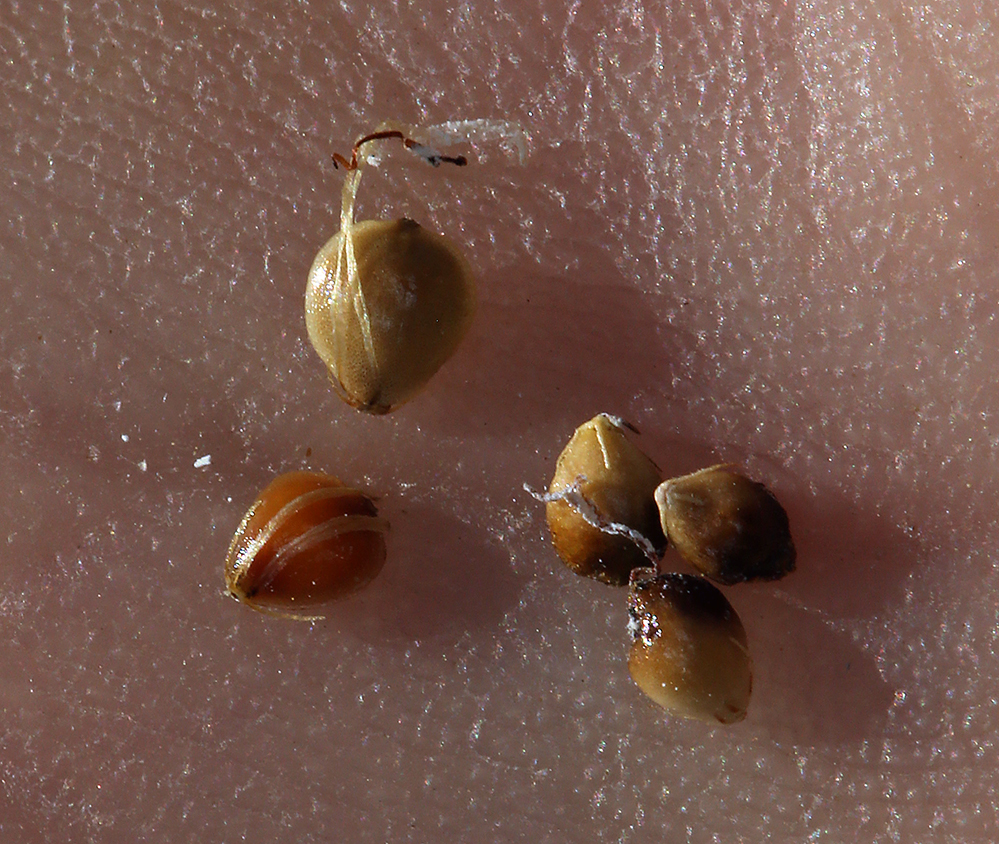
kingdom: Plantae
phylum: Tracheophyta
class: Liliopsida
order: Poales
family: Cyperaceae
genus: Amphiscirpus
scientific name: Amphiscirpus nevadensis
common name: Nevada bulrush
